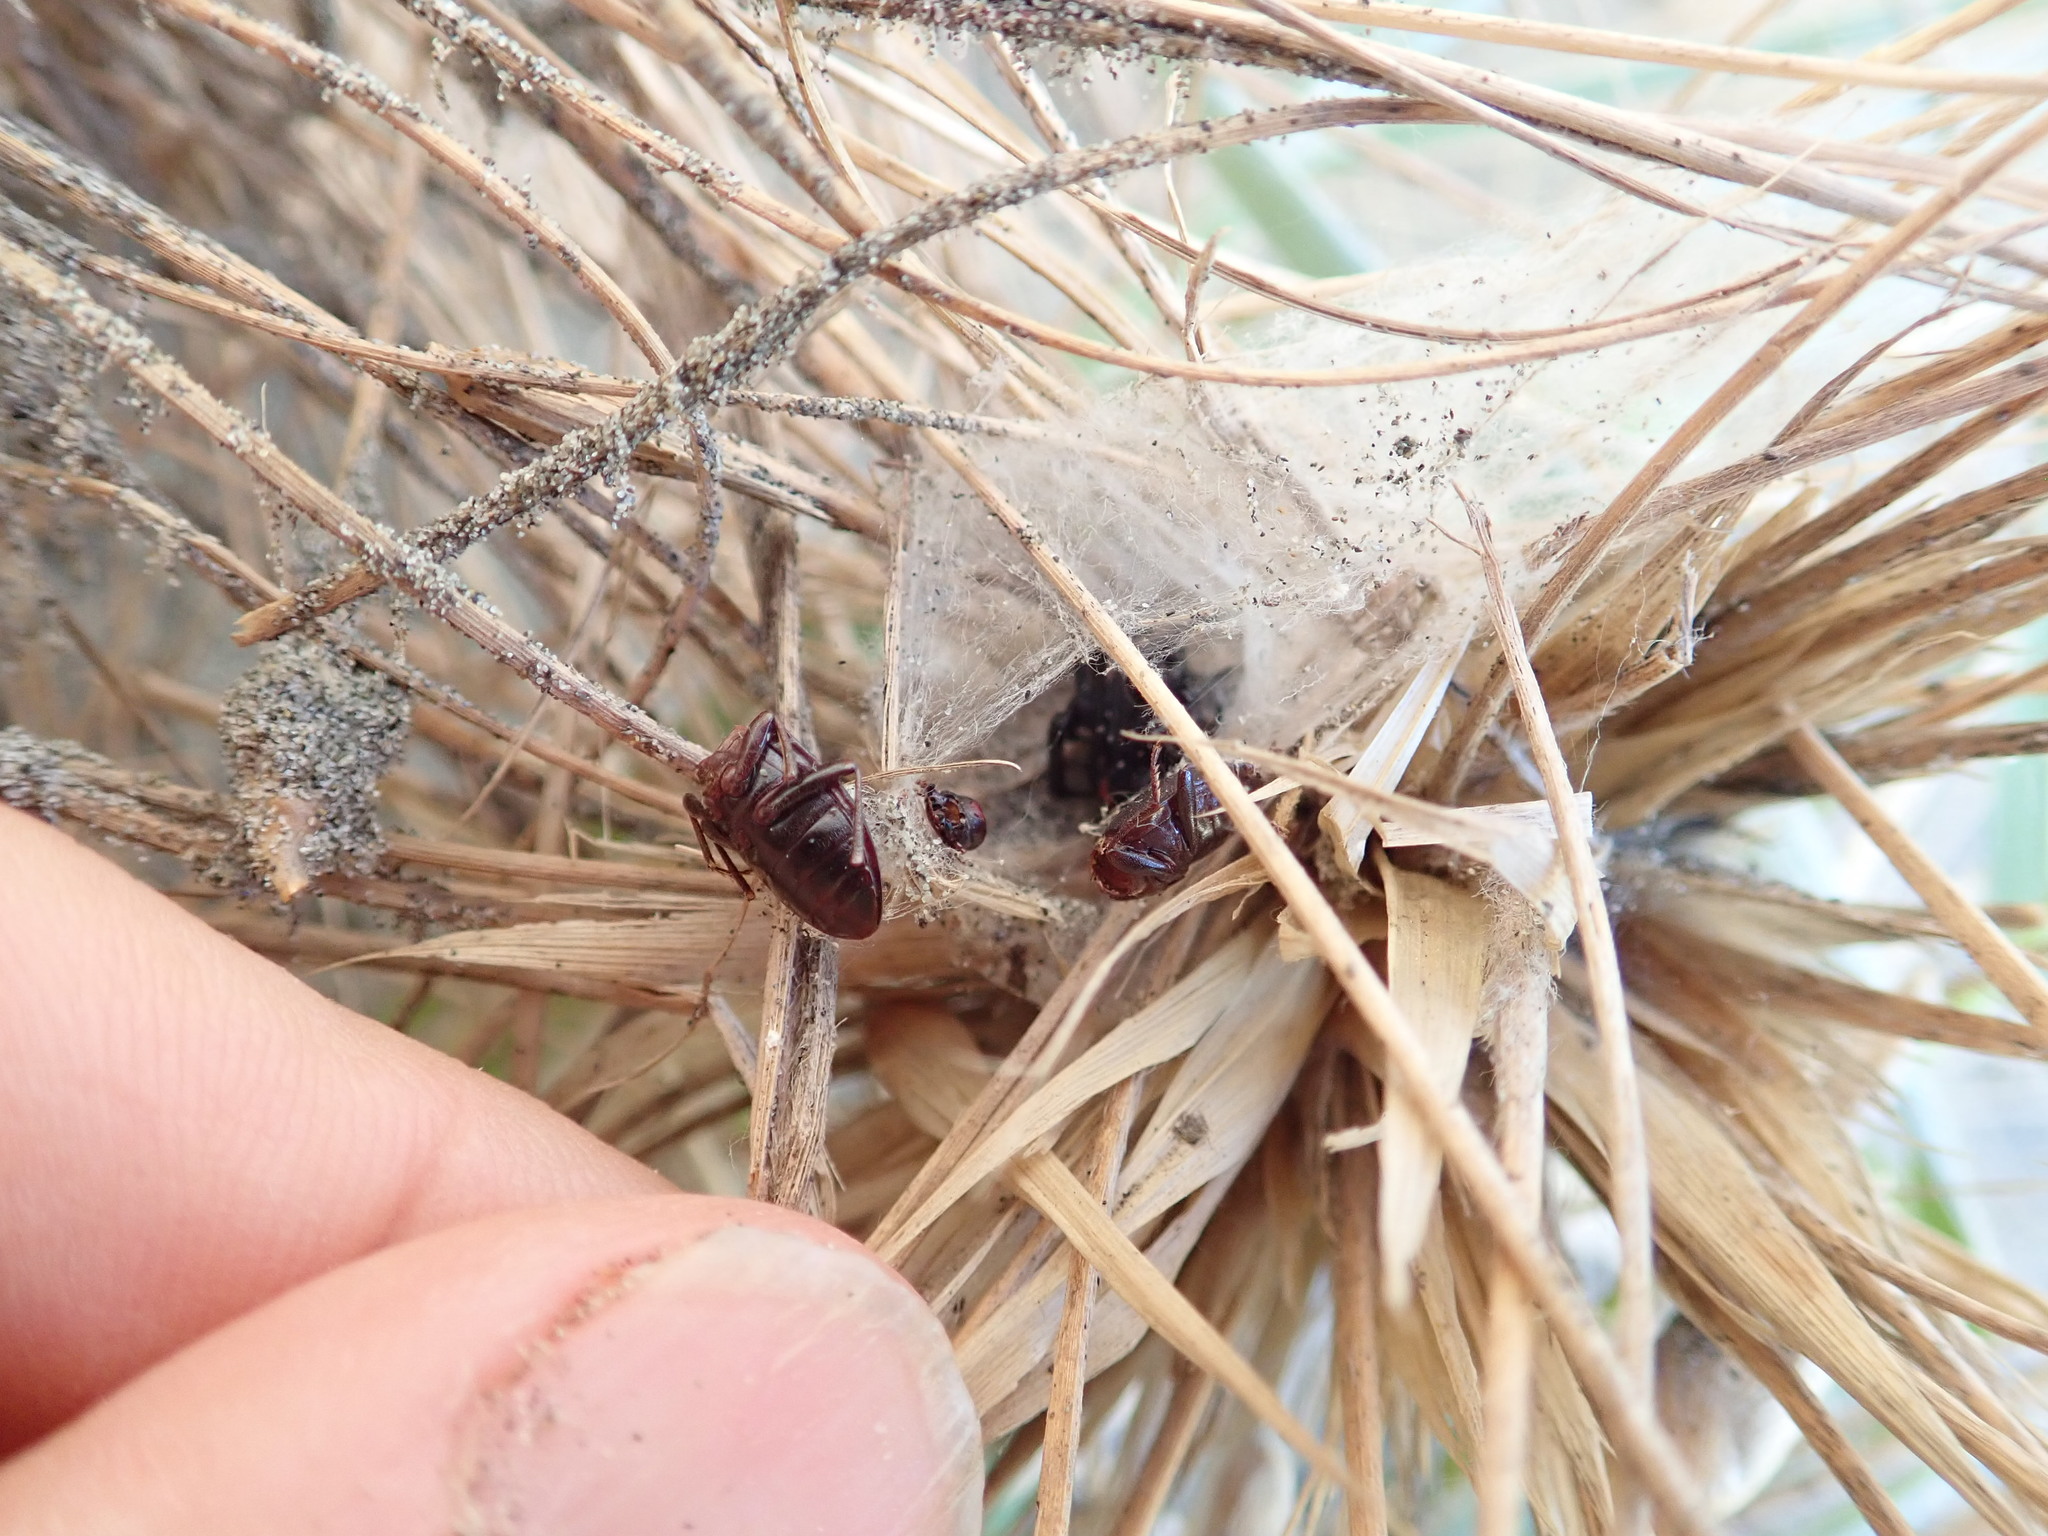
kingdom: Animalia
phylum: Arthropoda
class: Arachnida
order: Araneae
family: Theridiidae
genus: Latrodectus
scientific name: Latrodectus katipo
